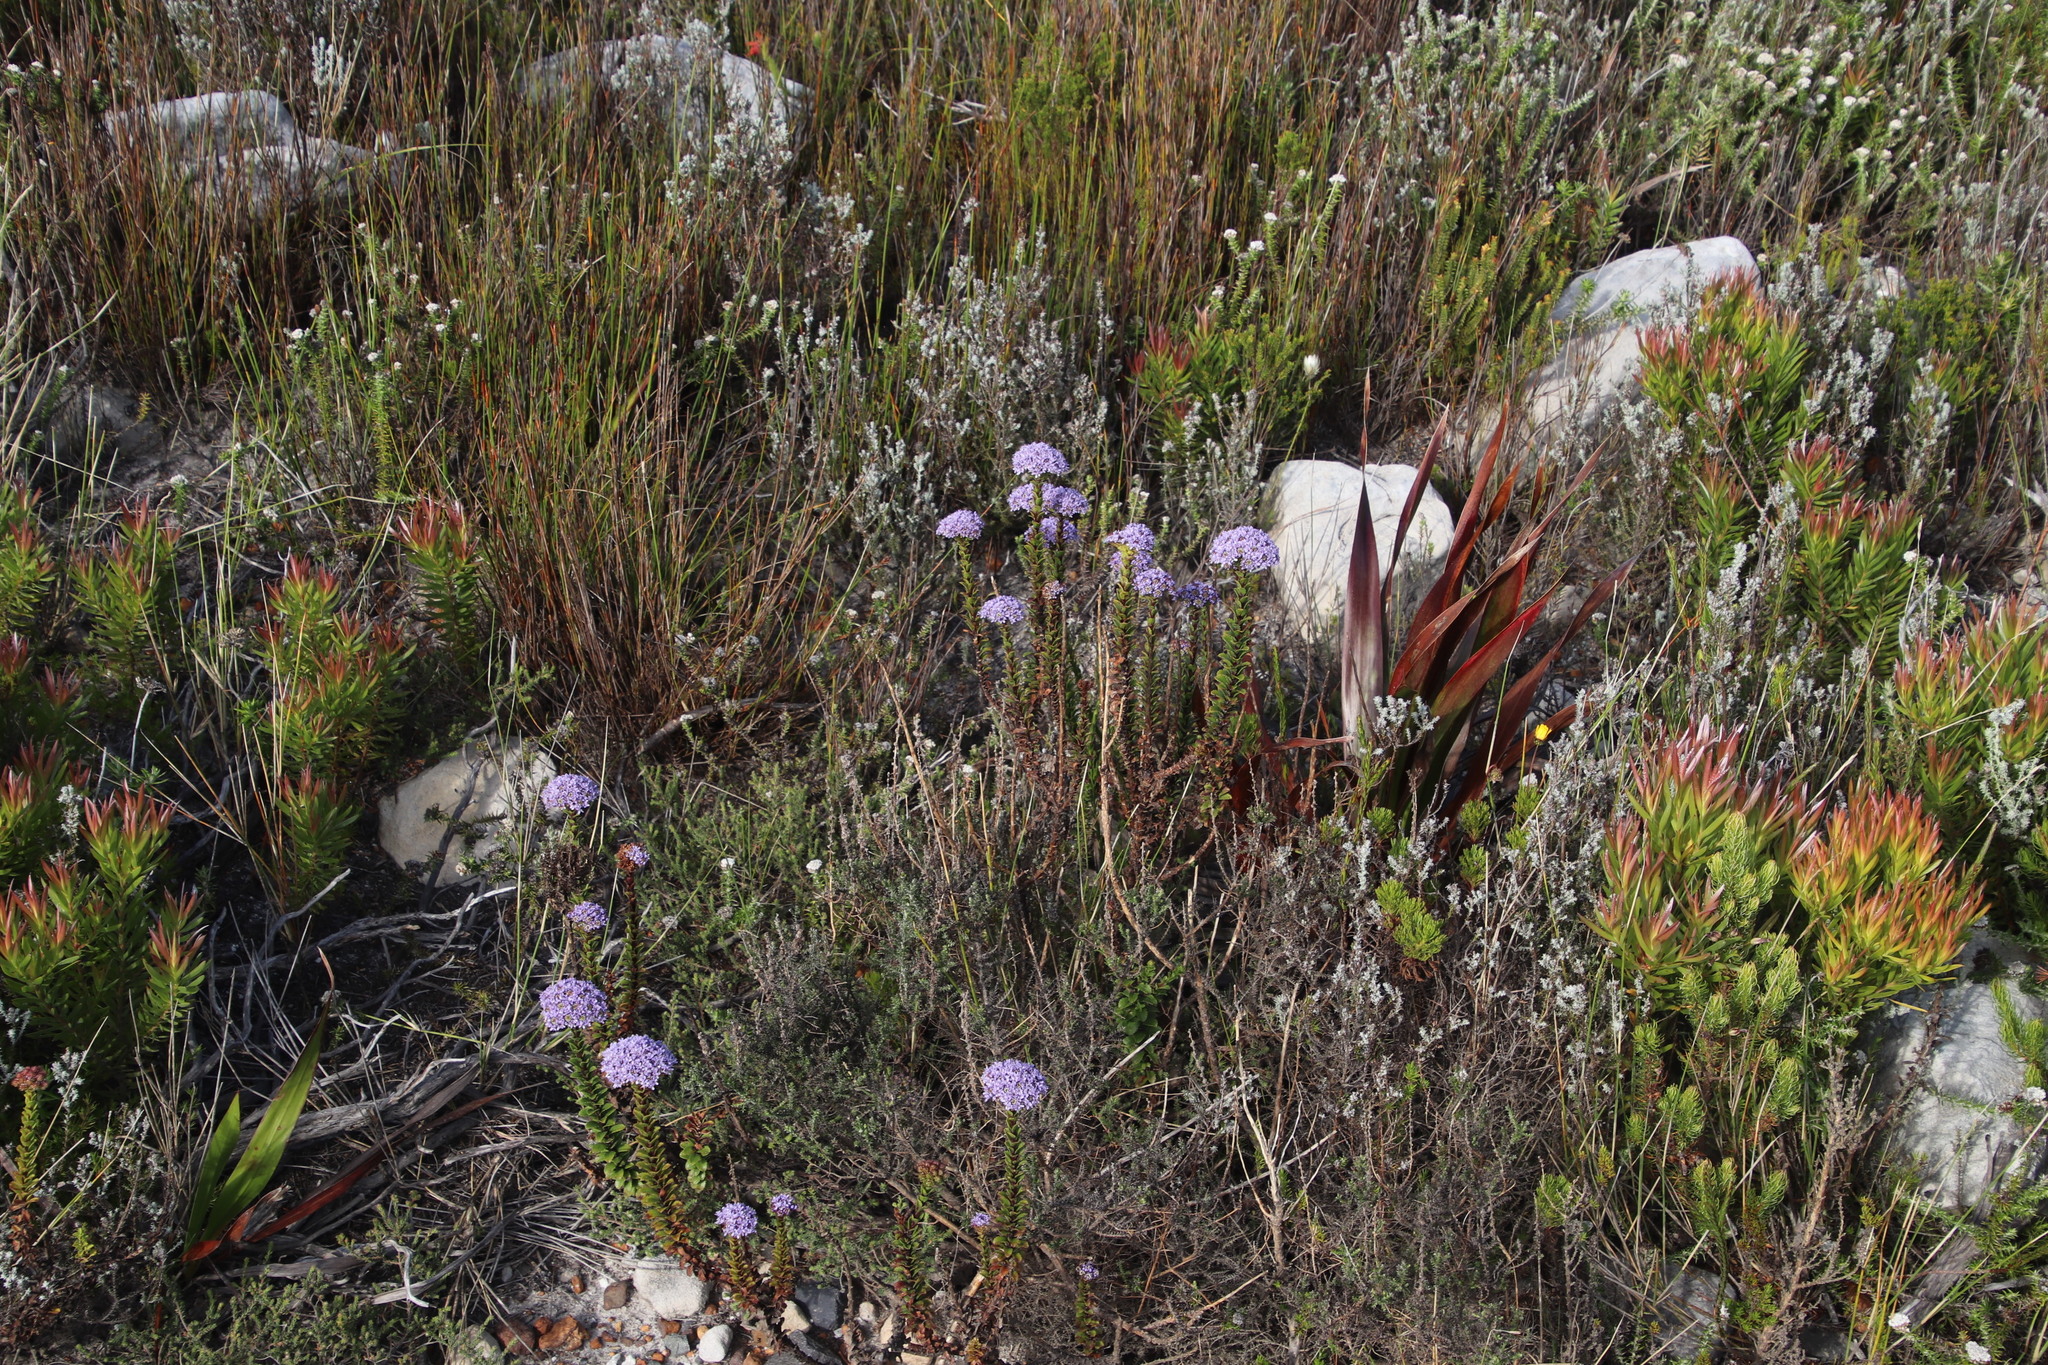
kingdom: Plantae
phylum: Tracheophyta
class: Magnoliopsida
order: Lamiales
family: Scrophulariaceae
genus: Pseudoselago
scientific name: Pseudoselago serrata
